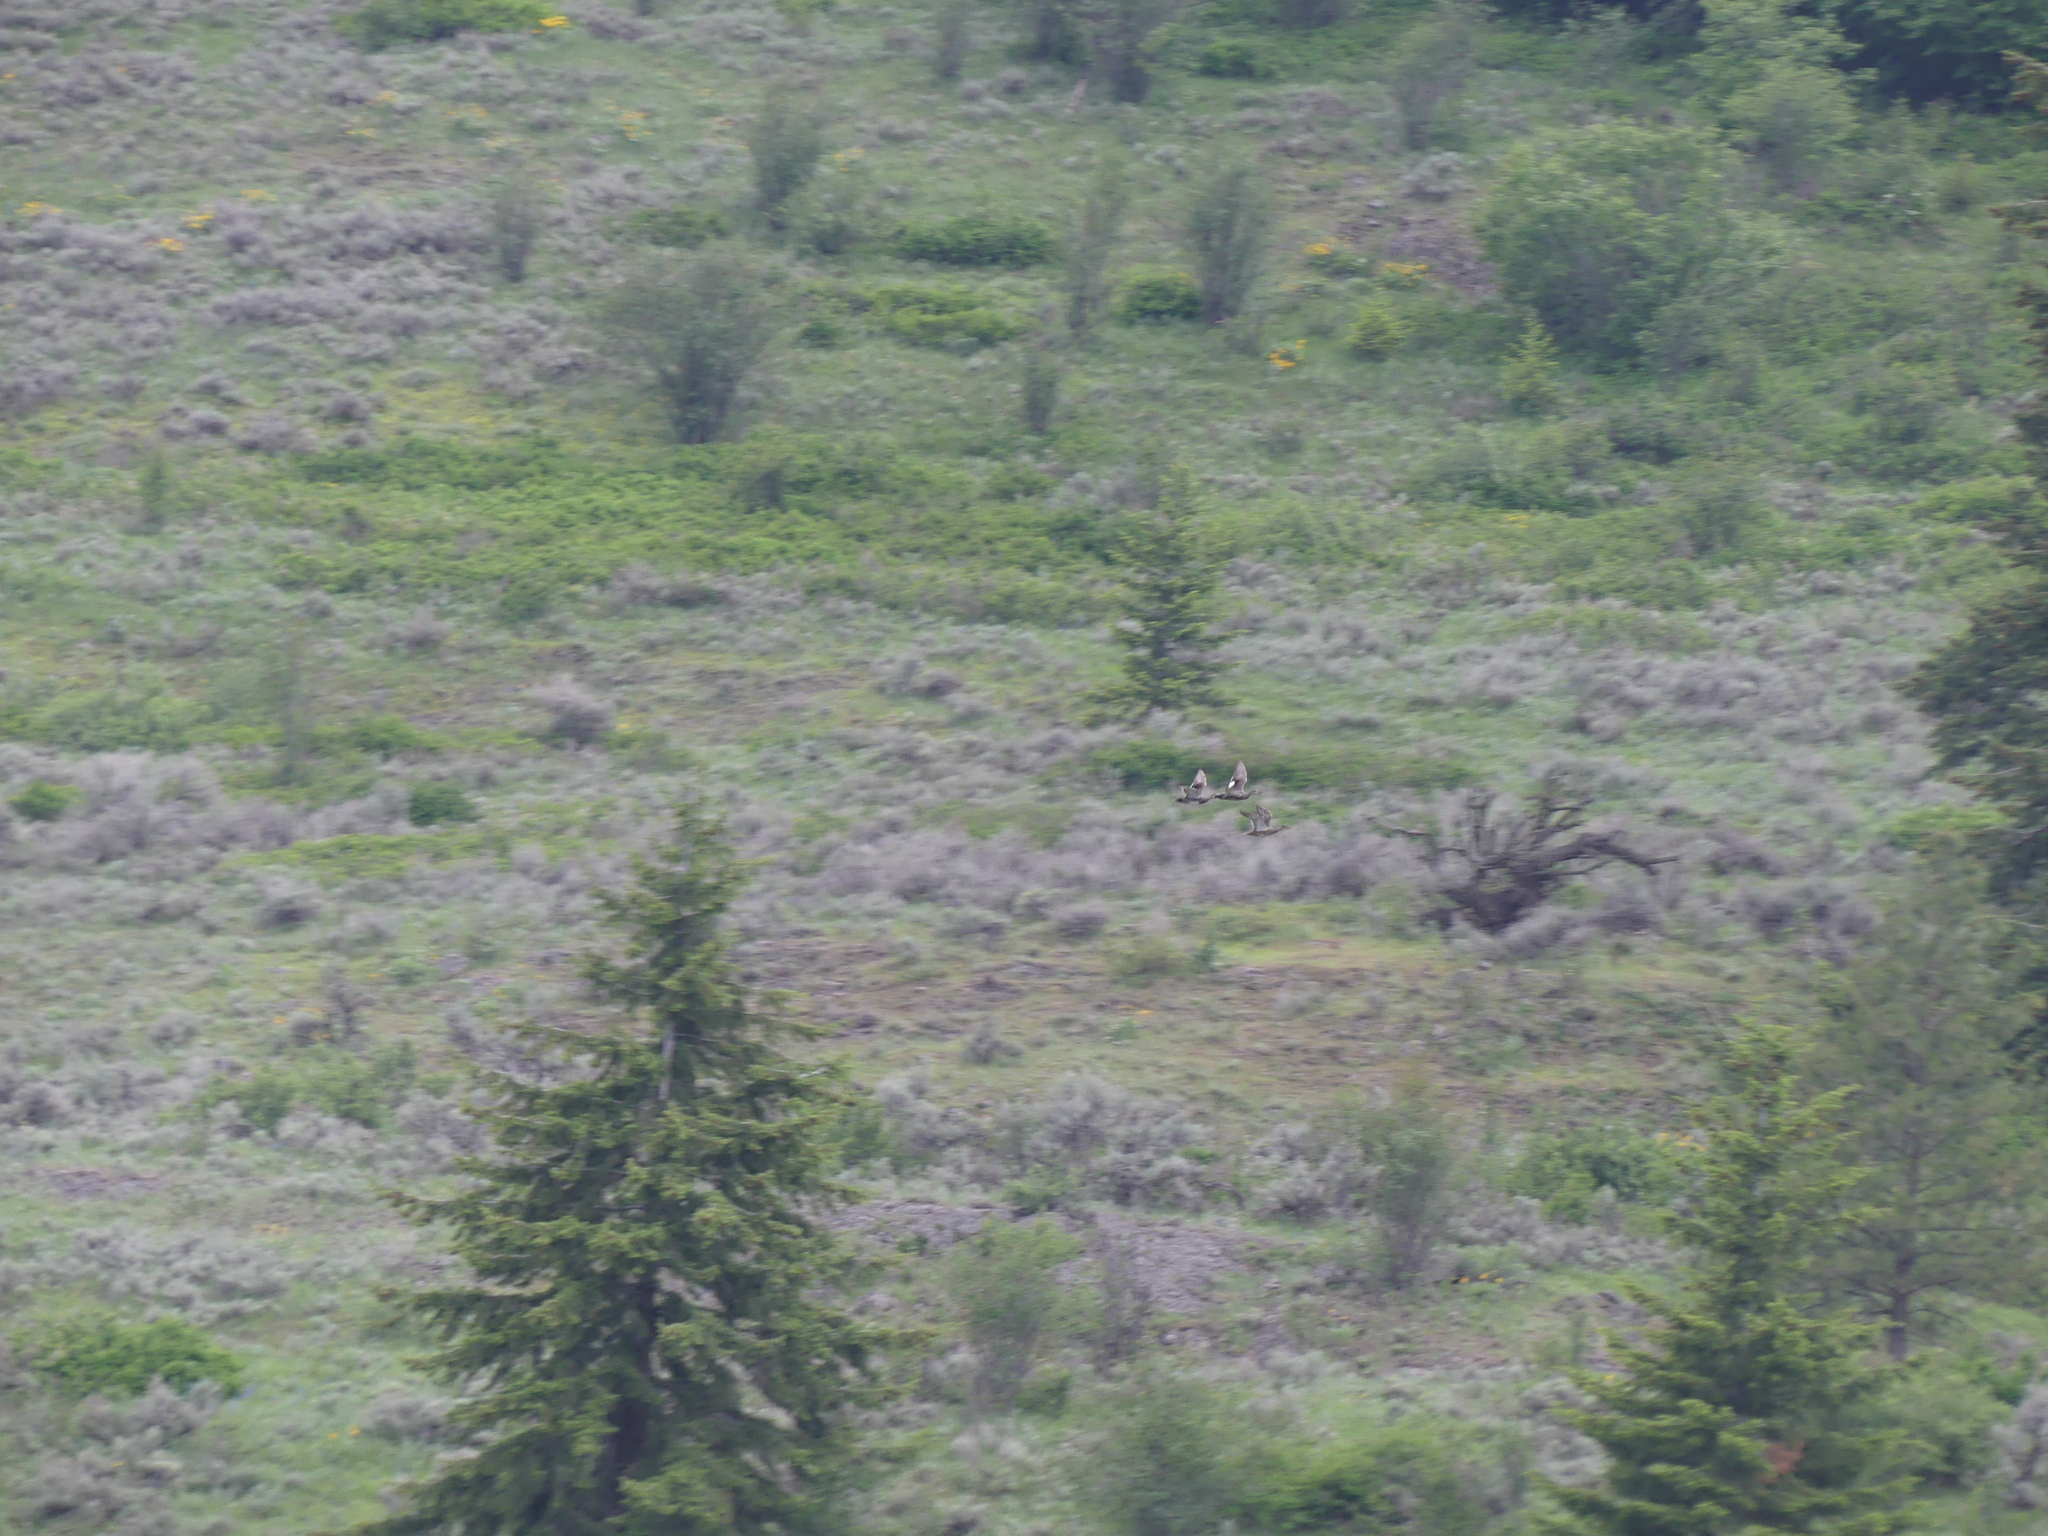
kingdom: Animalia
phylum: Chordata
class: Aves
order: Anseriformes
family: Anatidae
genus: Mareca
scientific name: Mareca strepera
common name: Gadwall
